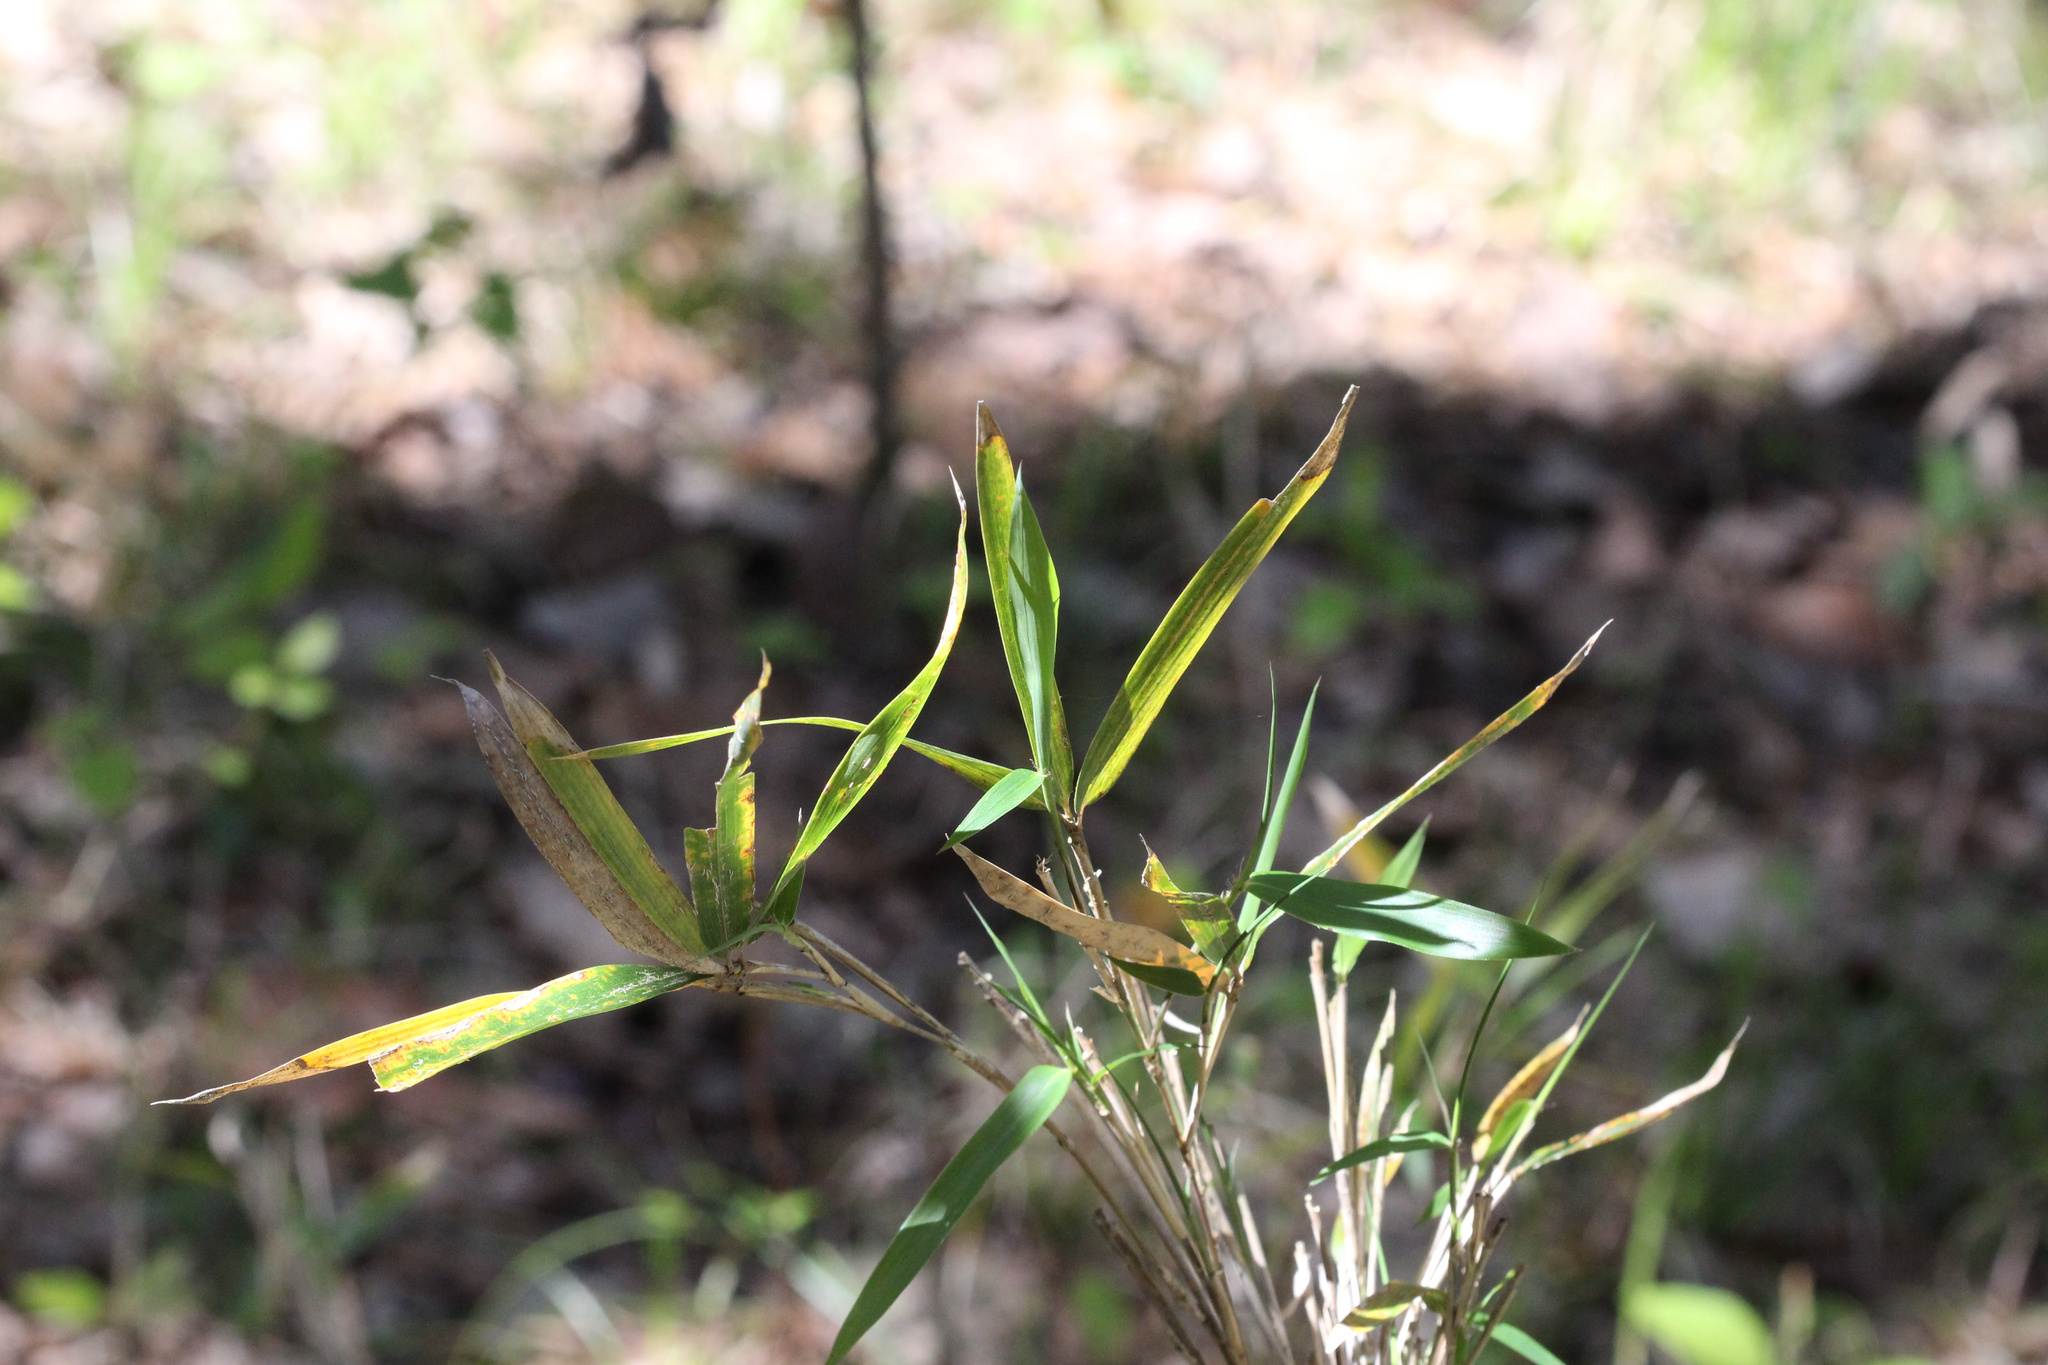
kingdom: Plantae
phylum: Tracheophyta
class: Liliopsida
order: Poales
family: Poaceae
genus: Arundinaria
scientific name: Arundinaria gigantea
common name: Giant cane
